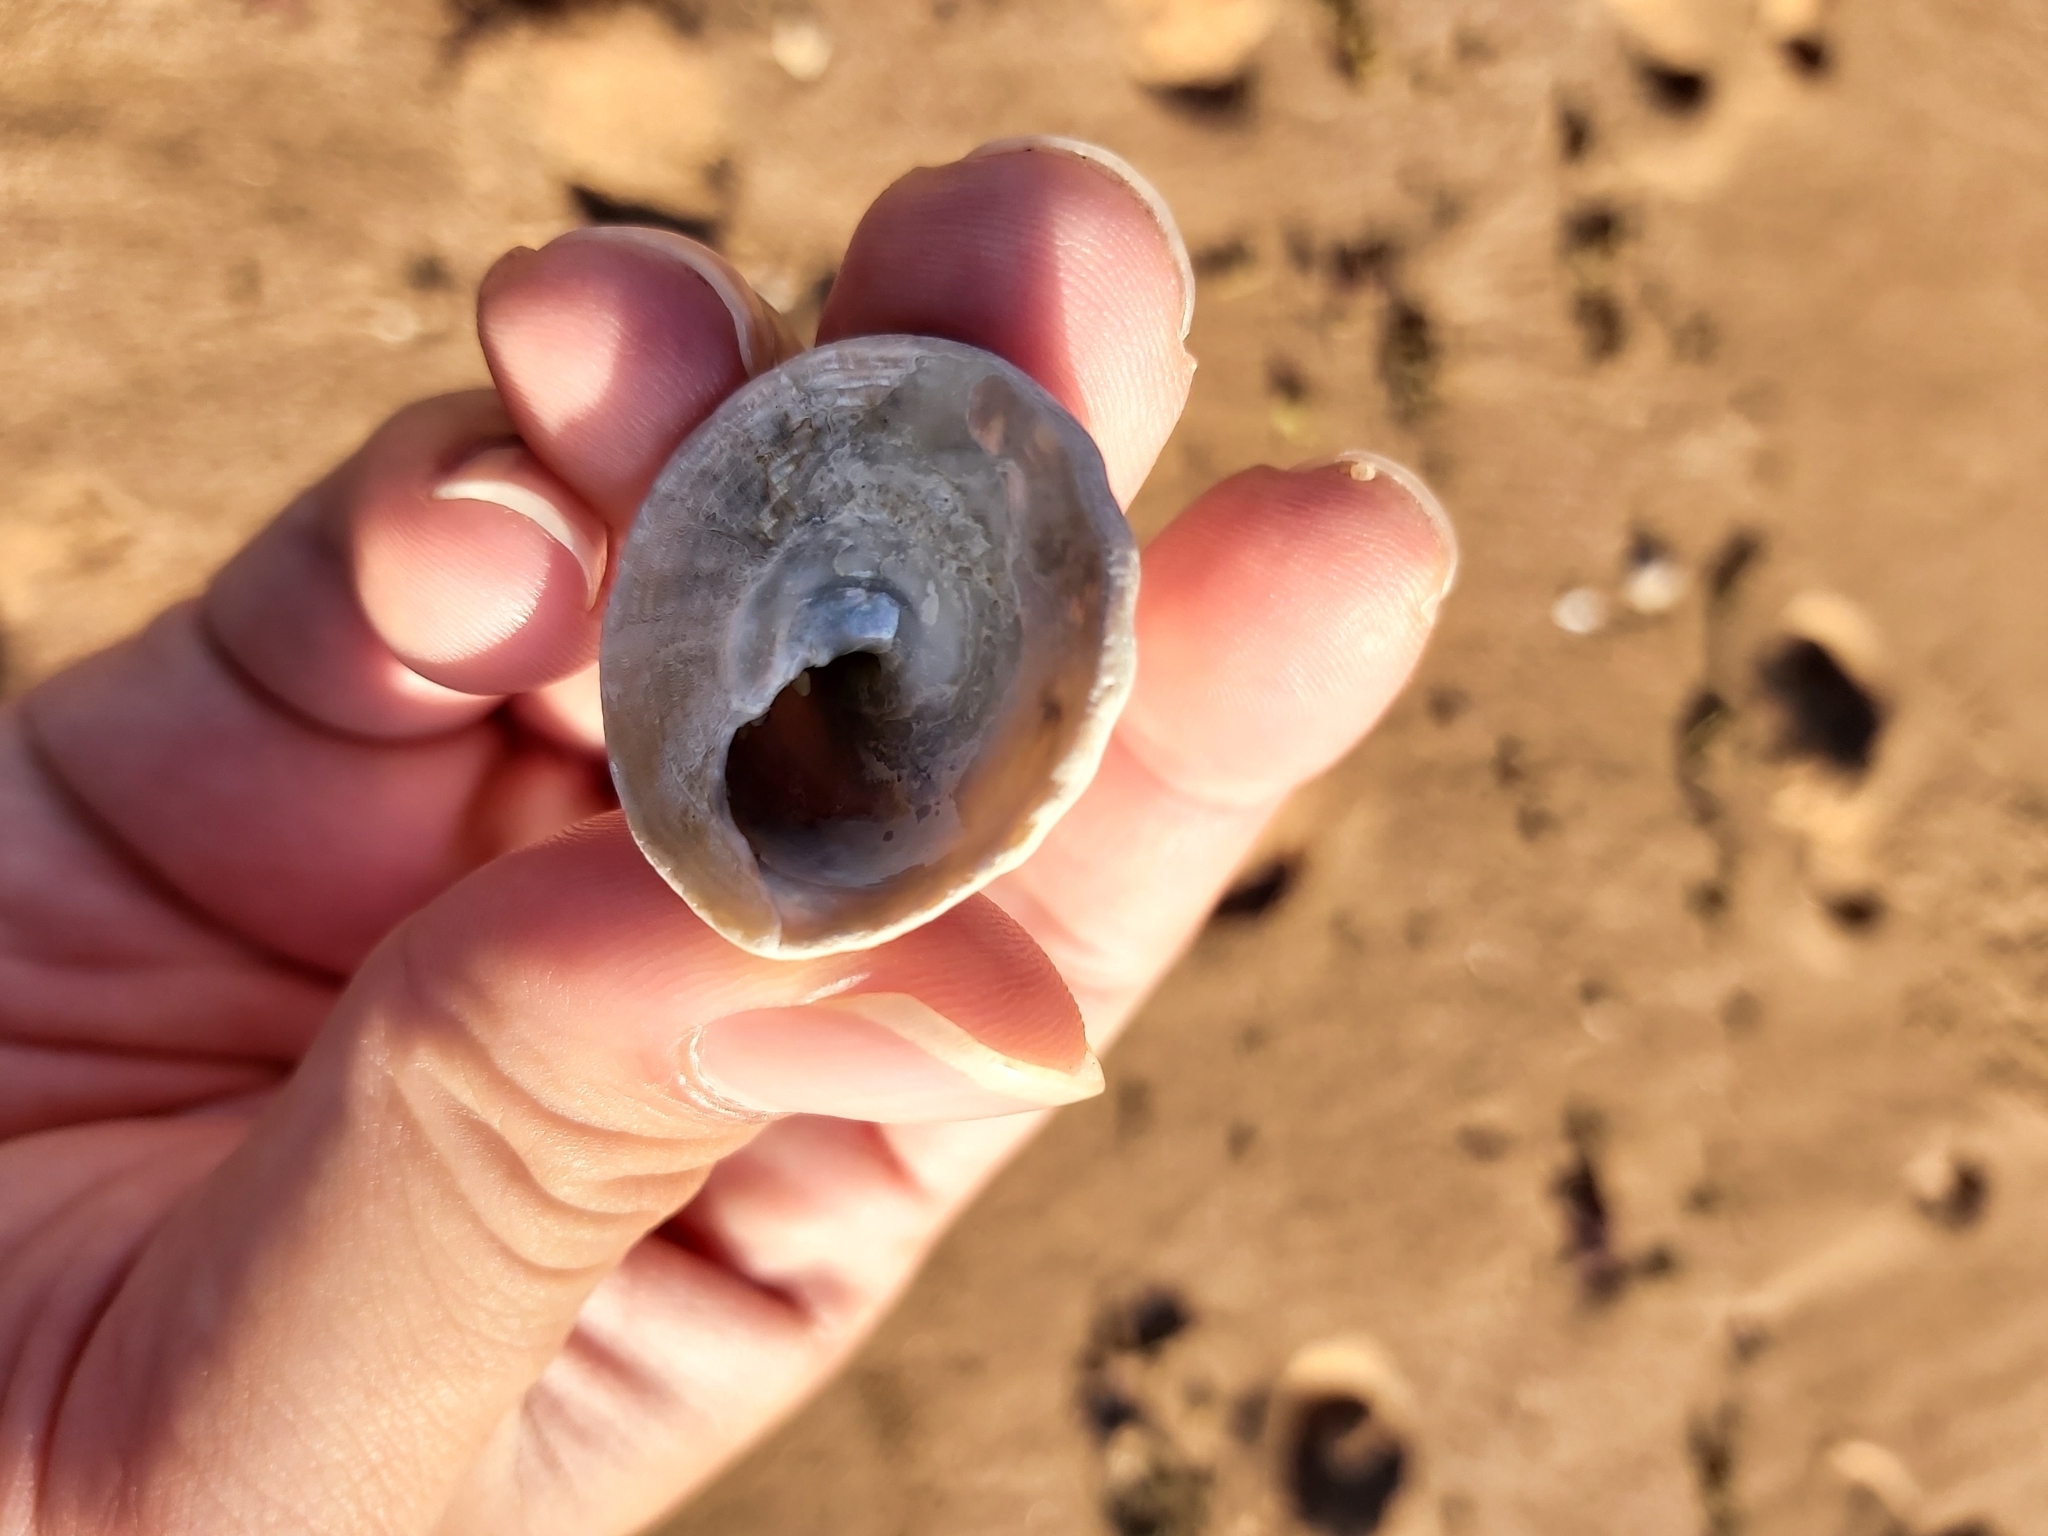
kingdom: Animalia
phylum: Mollusca
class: Gastropoda
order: Trochida
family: Turbinidae
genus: Astralium
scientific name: Astralium tentoriiforme
